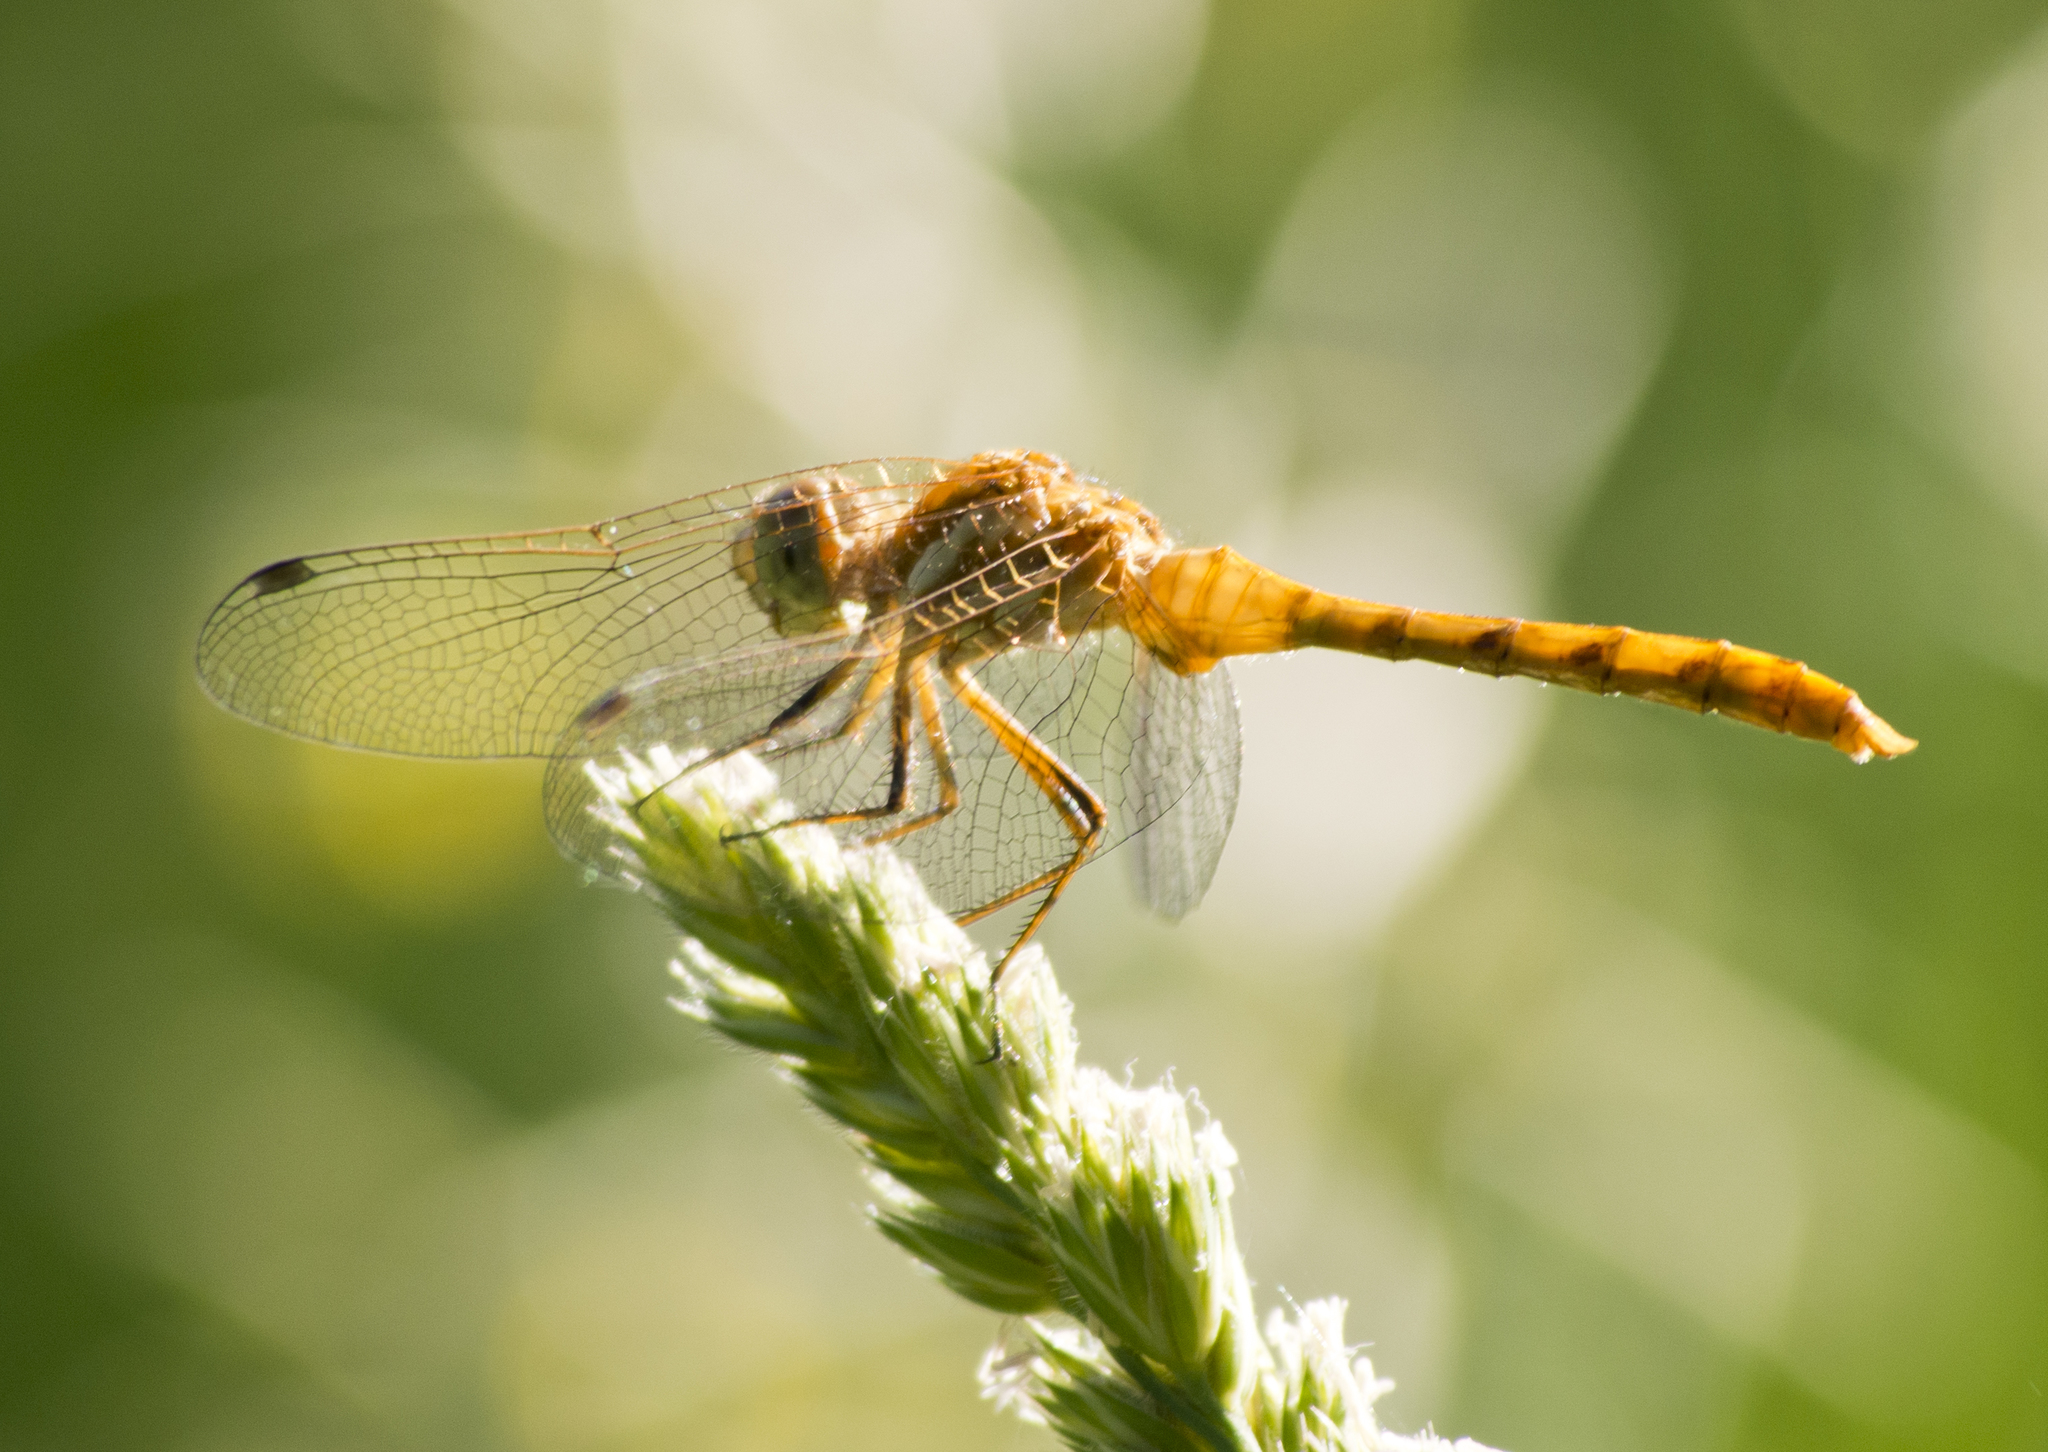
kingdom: Animalia
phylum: Arthropoda
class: Insecta
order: Odonata
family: Libellulidae
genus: Sympetrum
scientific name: Sympetrum pallipes
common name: Striped meadowhawk
